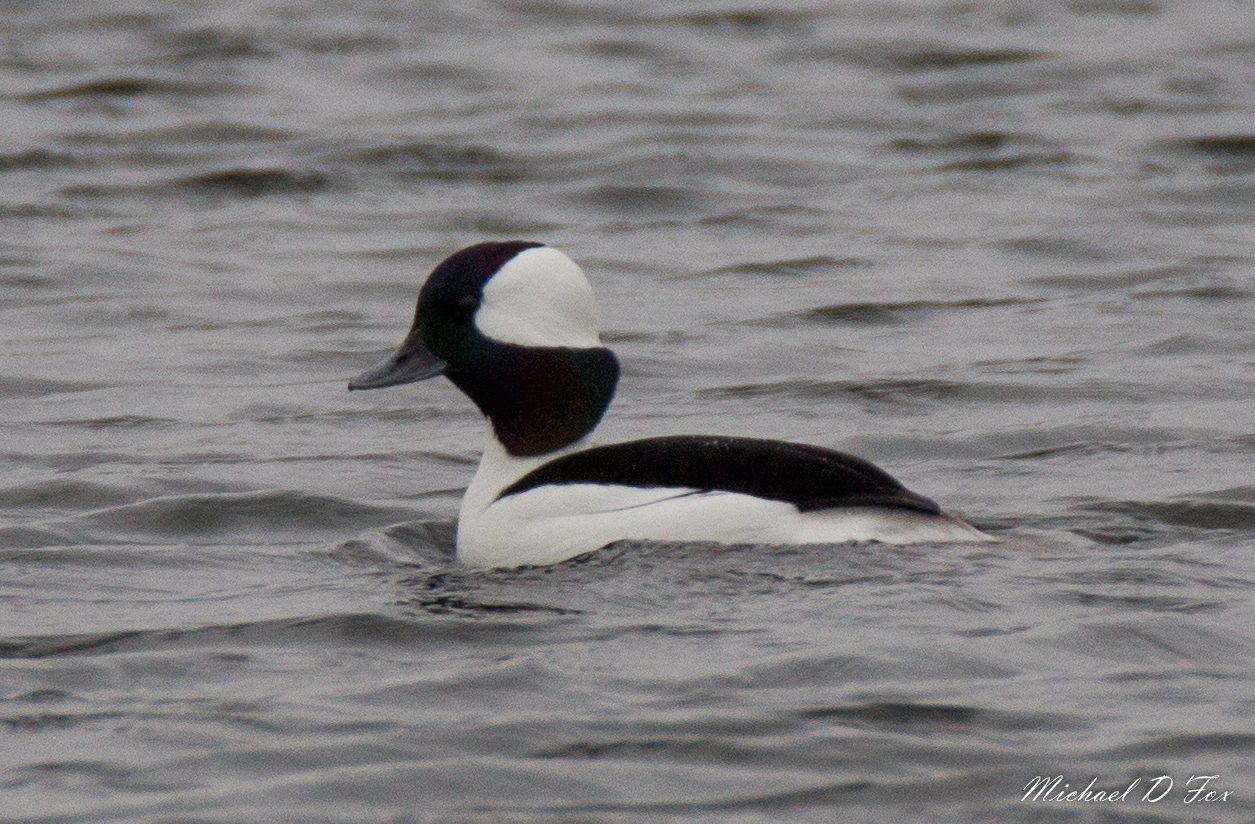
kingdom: Animalia
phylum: Chordata
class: Aves
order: Anseriformes
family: Anatidae
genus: Bucephala
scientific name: Bucephala albeola
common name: Bufflehead
